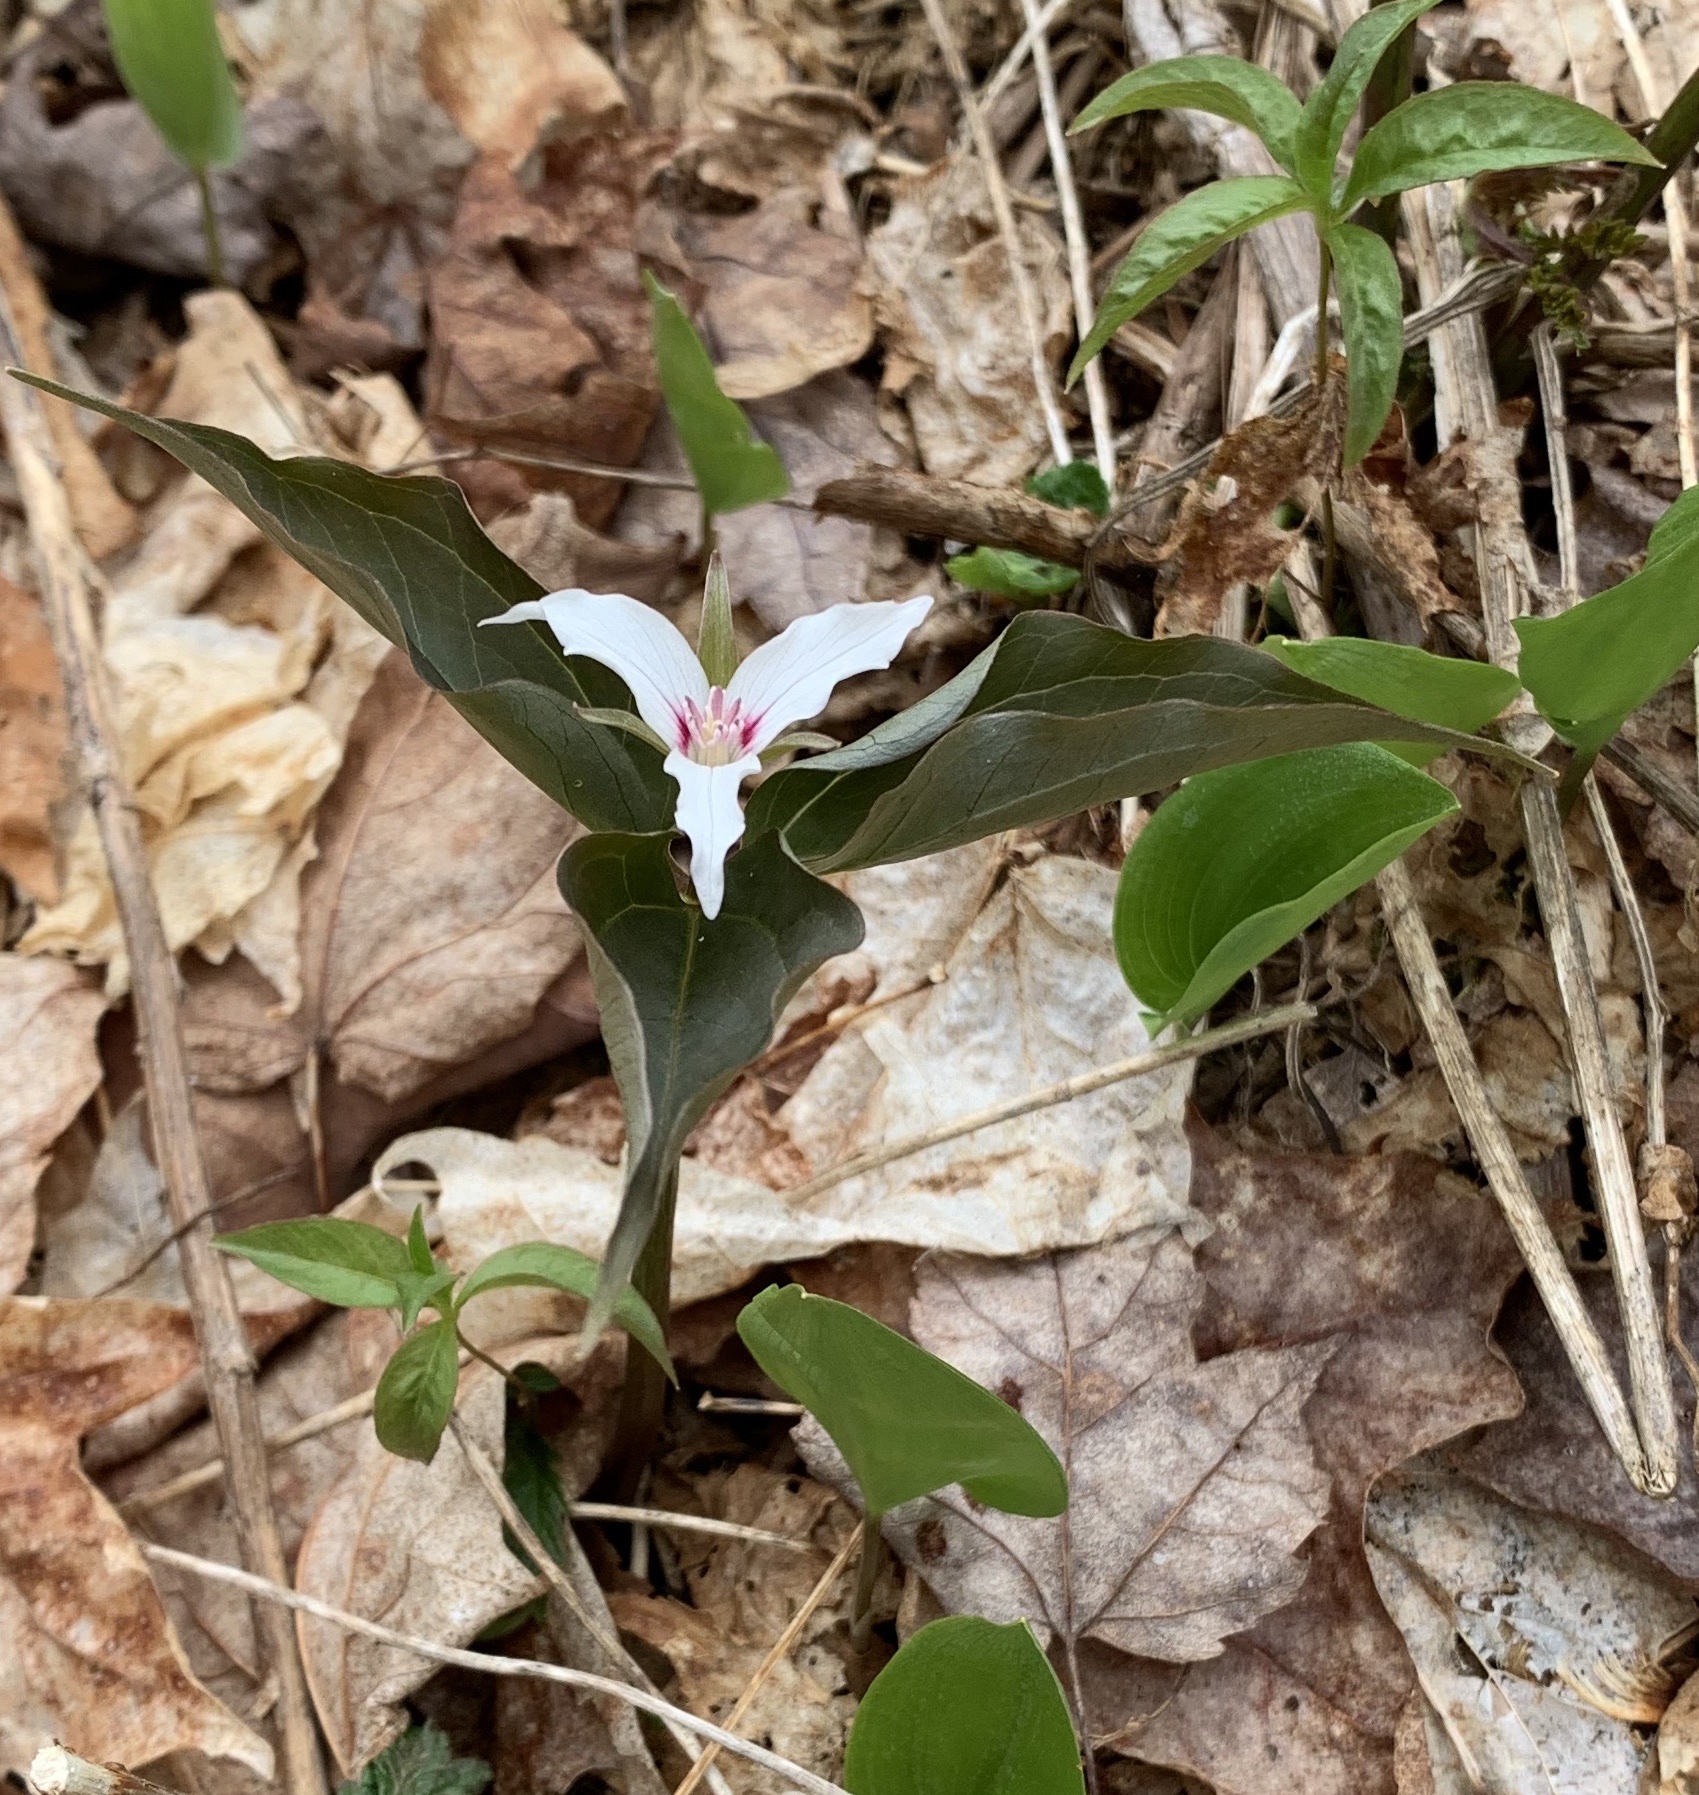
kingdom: Plantae
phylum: Tracheophyta
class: Liliopsida
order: Liliales
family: Melanthiaceae
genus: Trillium
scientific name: Trillium undulatum
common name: Paint trillium
